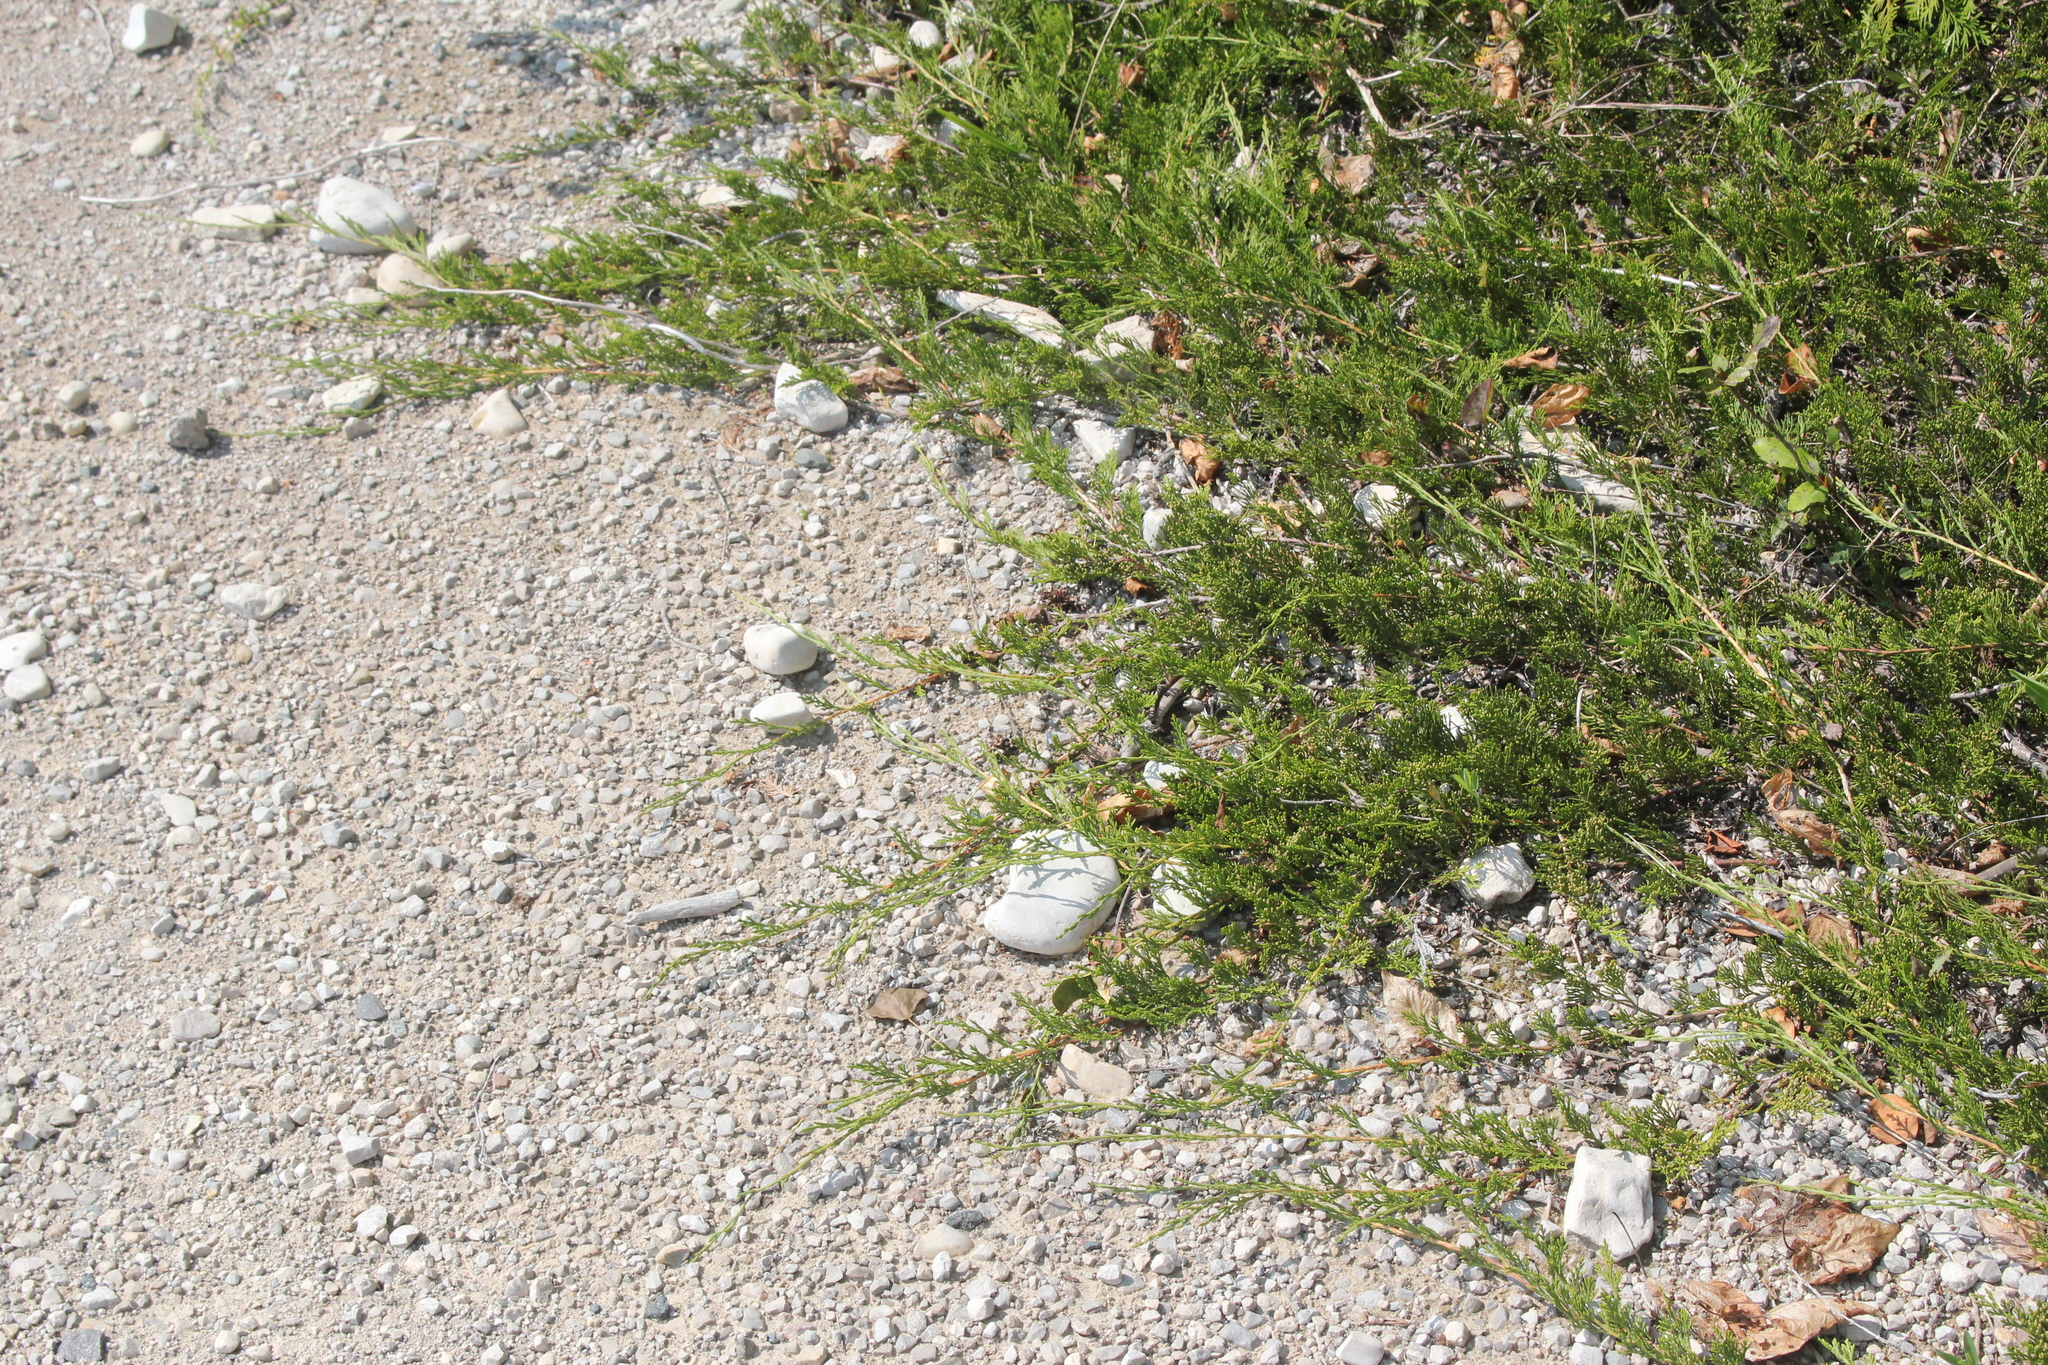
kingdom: Plantae
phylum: Tracheophyta
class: Pinopsida
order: Pinales
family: Cupressaceae
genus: Juniperus
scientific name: Juniperus horizontalis
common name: Creeping juniper
